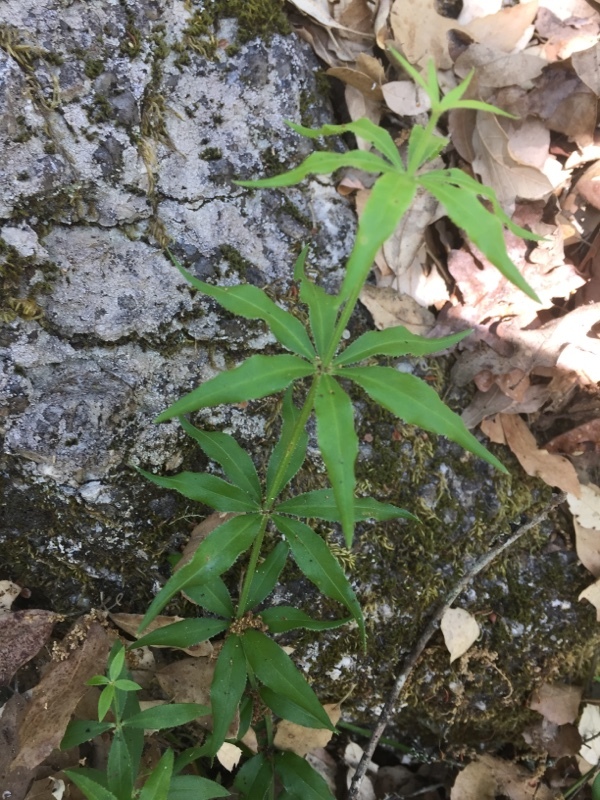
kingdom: Plantae
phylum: Tracheophyta
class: Magnoliopsida
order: Gentianales
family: Rubiaceae
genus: Rubia
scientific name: Rubia peregrina
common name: Wild madder
